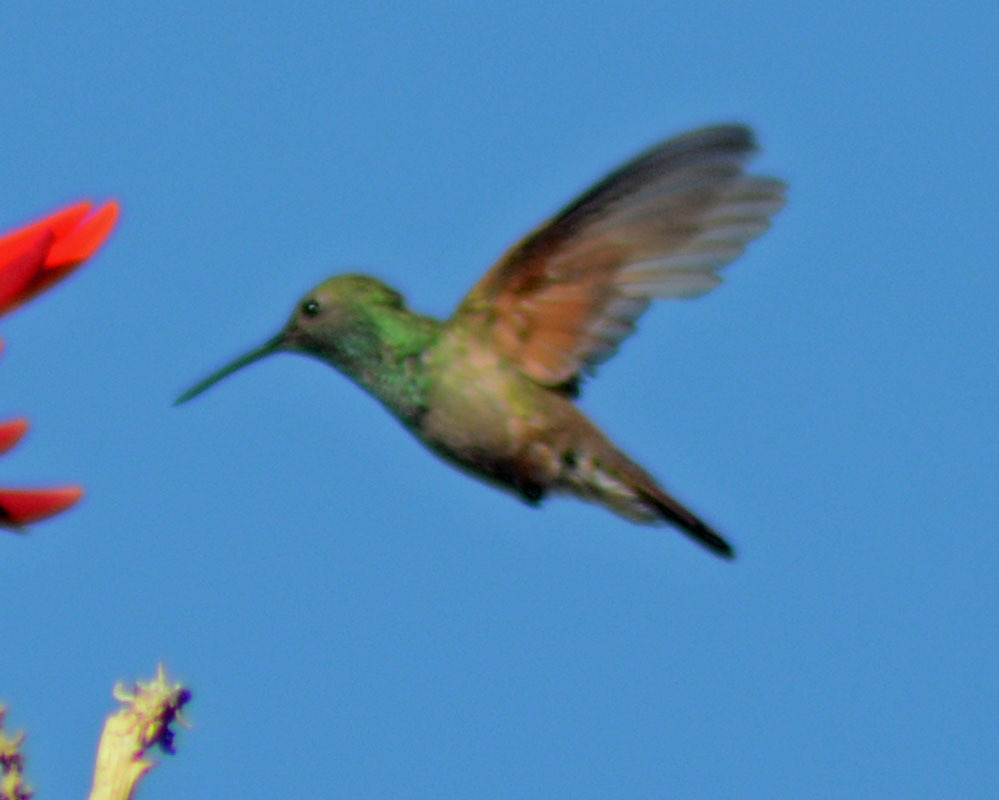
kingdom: Animalia
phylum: Chordata
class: Aves
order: Apodiformes
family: Trochilidae
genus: Saucerottia
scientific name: Saucerottia beryllina
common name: Berylline hummingbird
